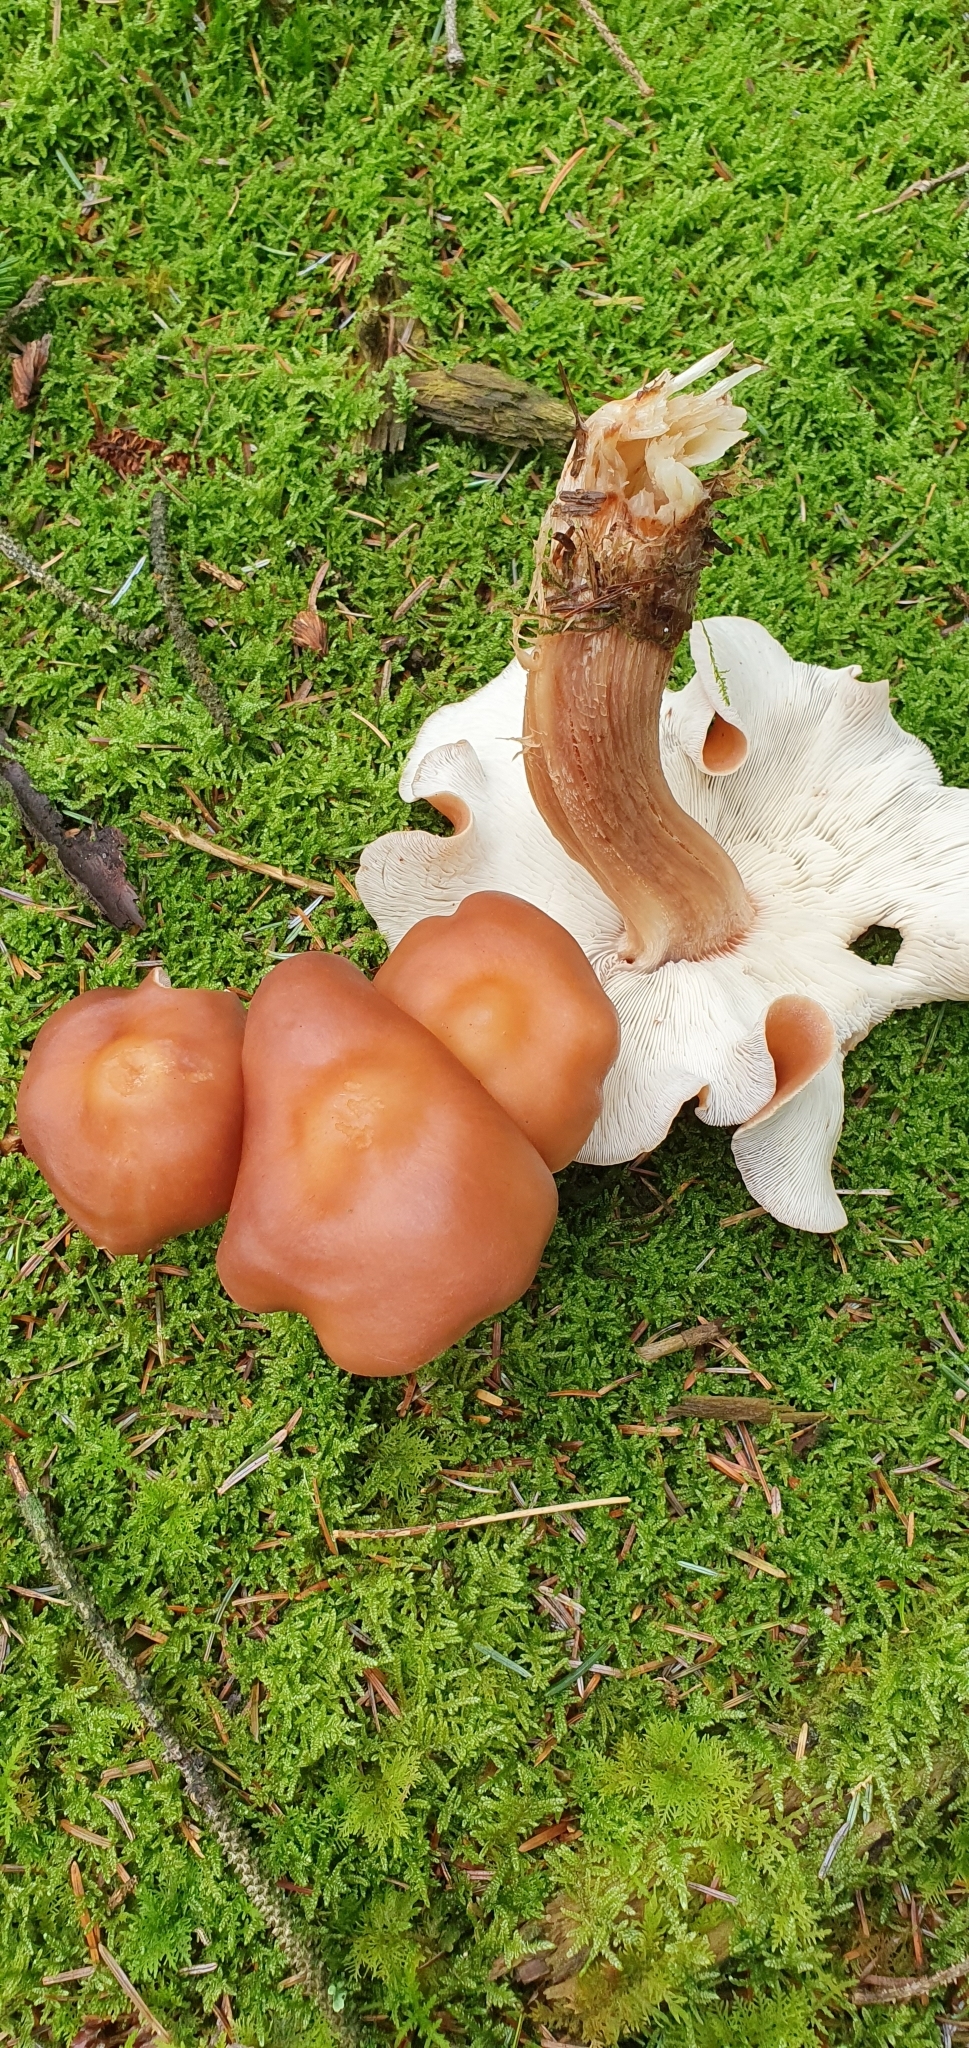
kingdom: Fungi
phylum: Basidiomycota
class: Agaricomycetes
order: Agaricales
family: Omphalotaceae
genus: Rhodocollybia
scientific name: Rhodocollybia prolixa
